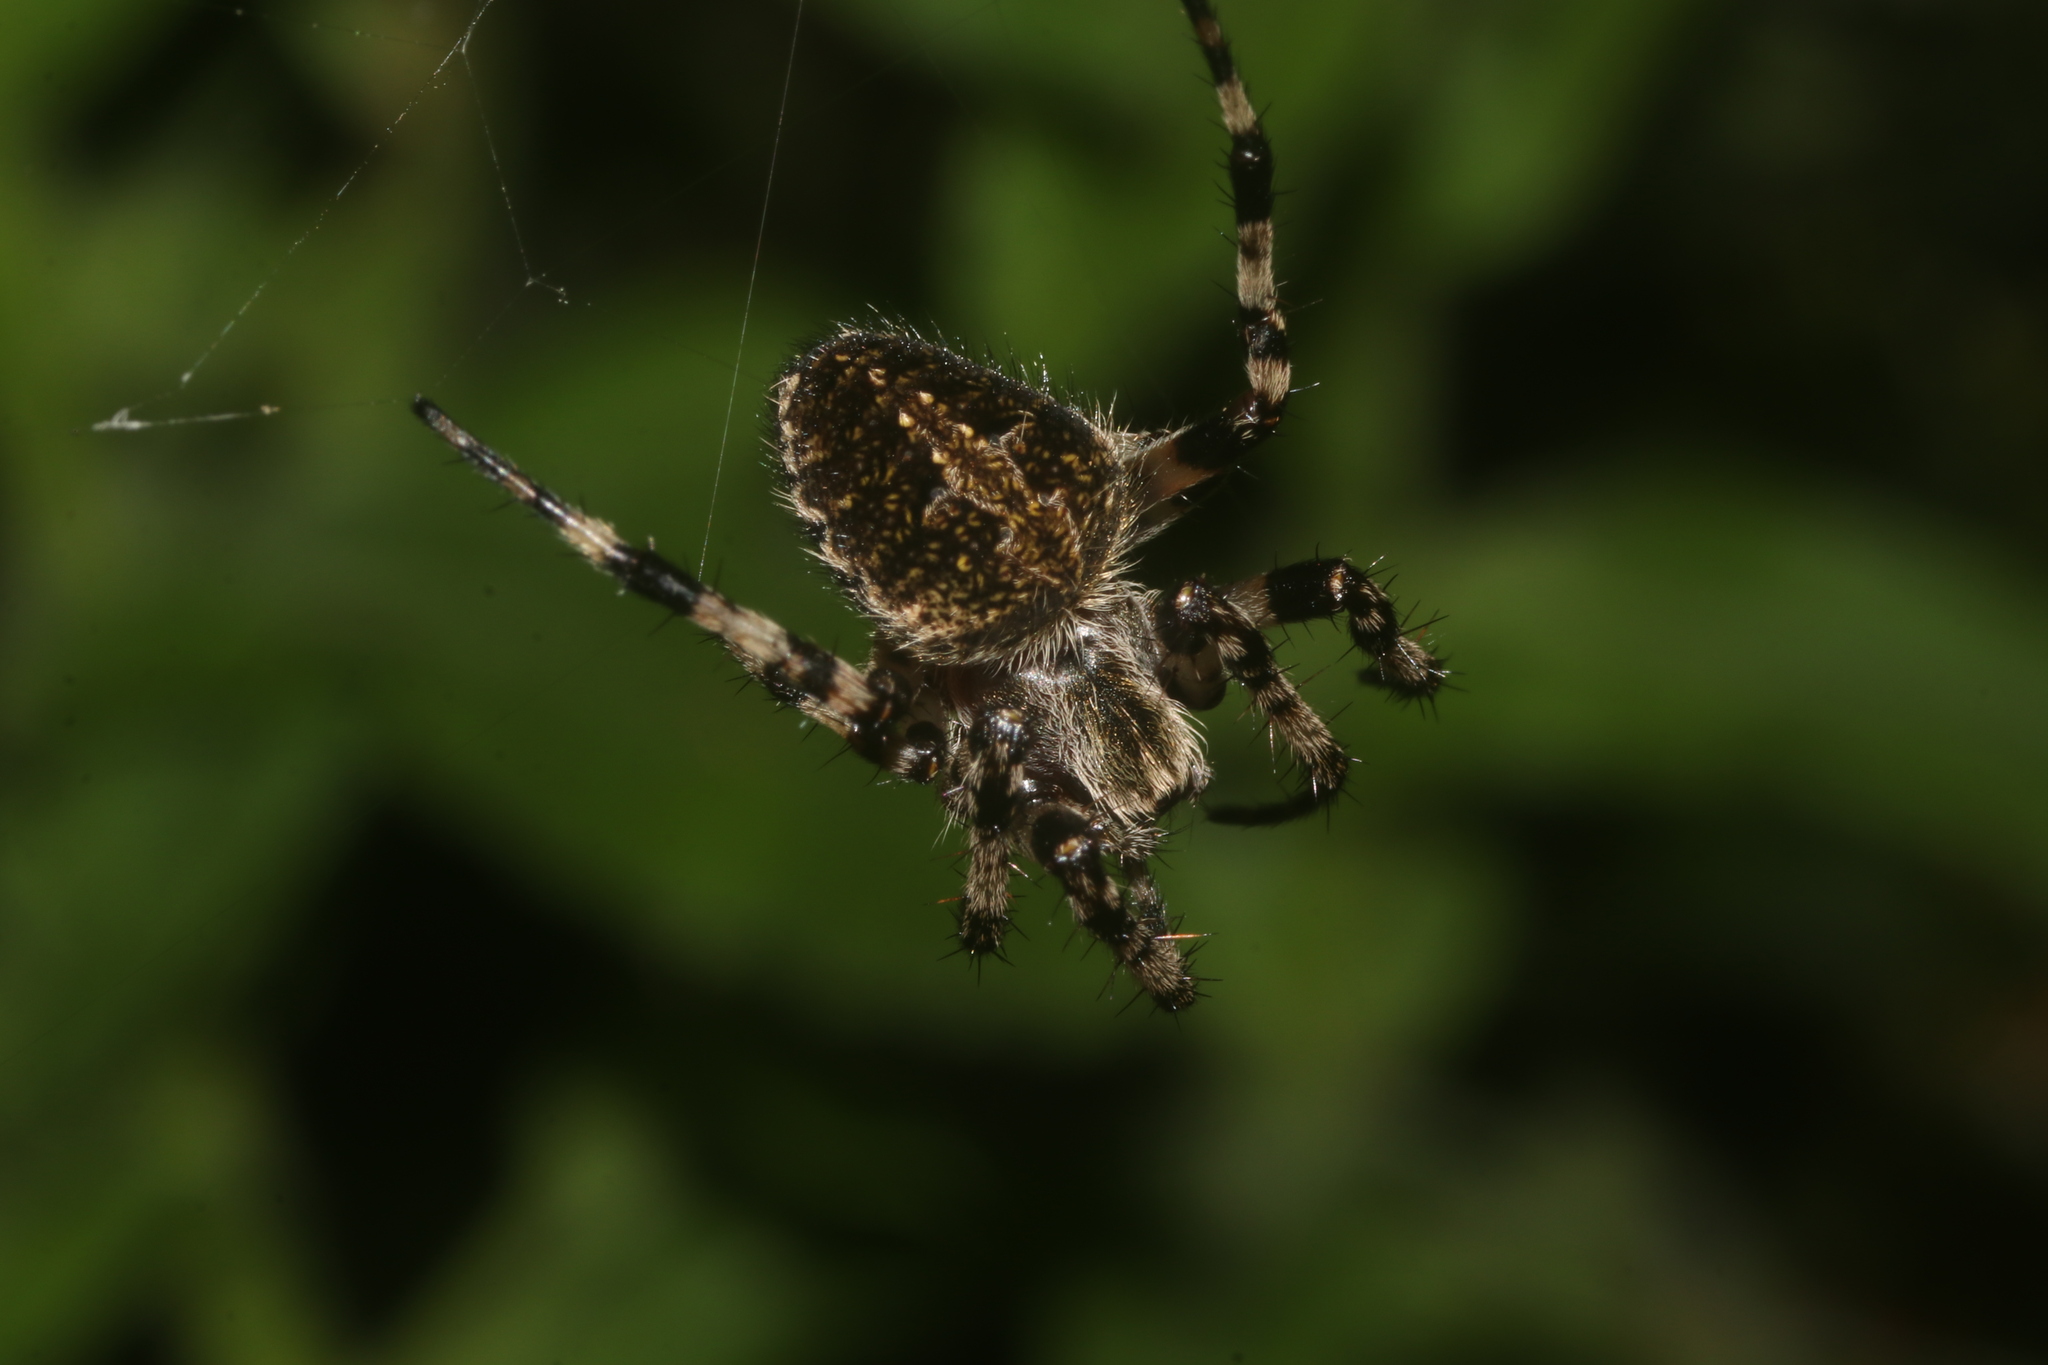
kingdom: Animalia
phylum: Arthropoda
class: Arachnida
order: Araneae
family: Araneidae
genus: Neoscona
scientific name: Neoscona orizabensis
